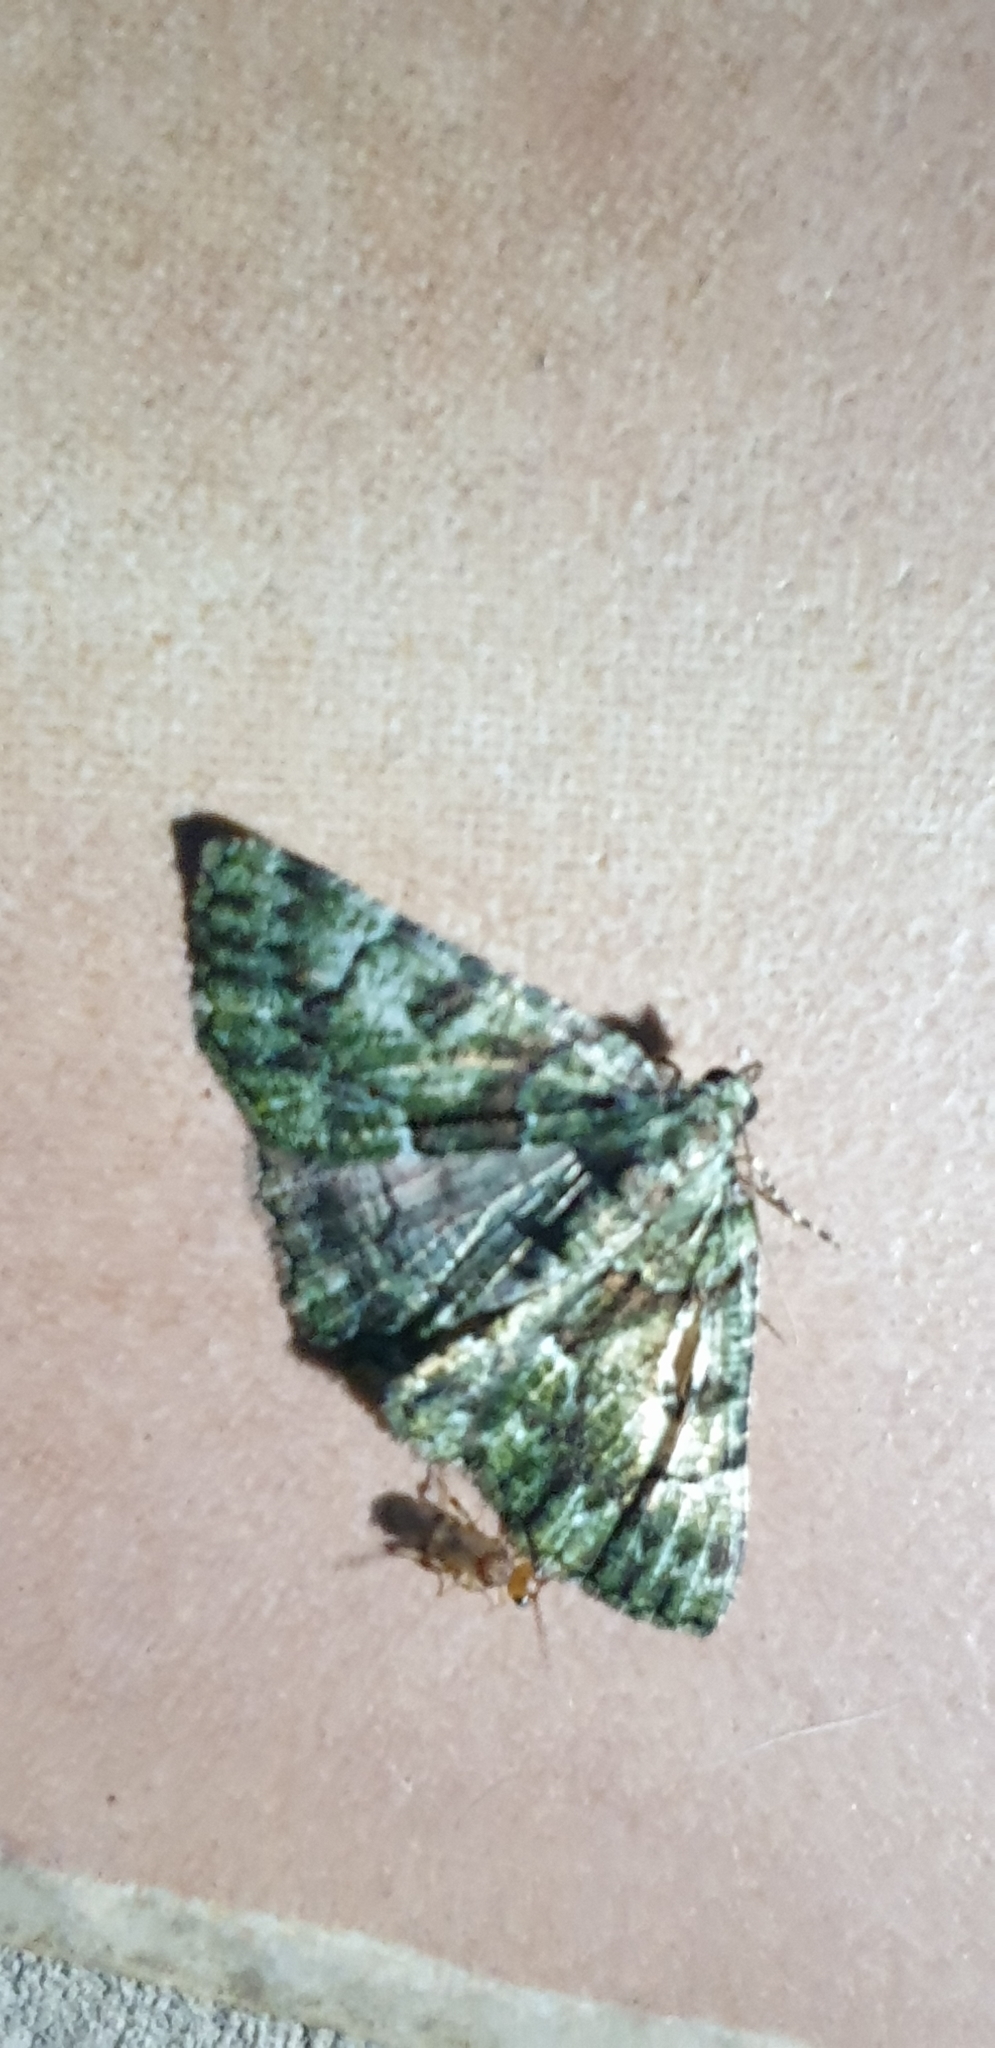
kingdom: Animalia
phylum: Arthropoda
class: Insecta
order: Lepidoptera
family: Geometridae
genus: Aeolochroma
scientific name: Aeolochroma metarhodata
